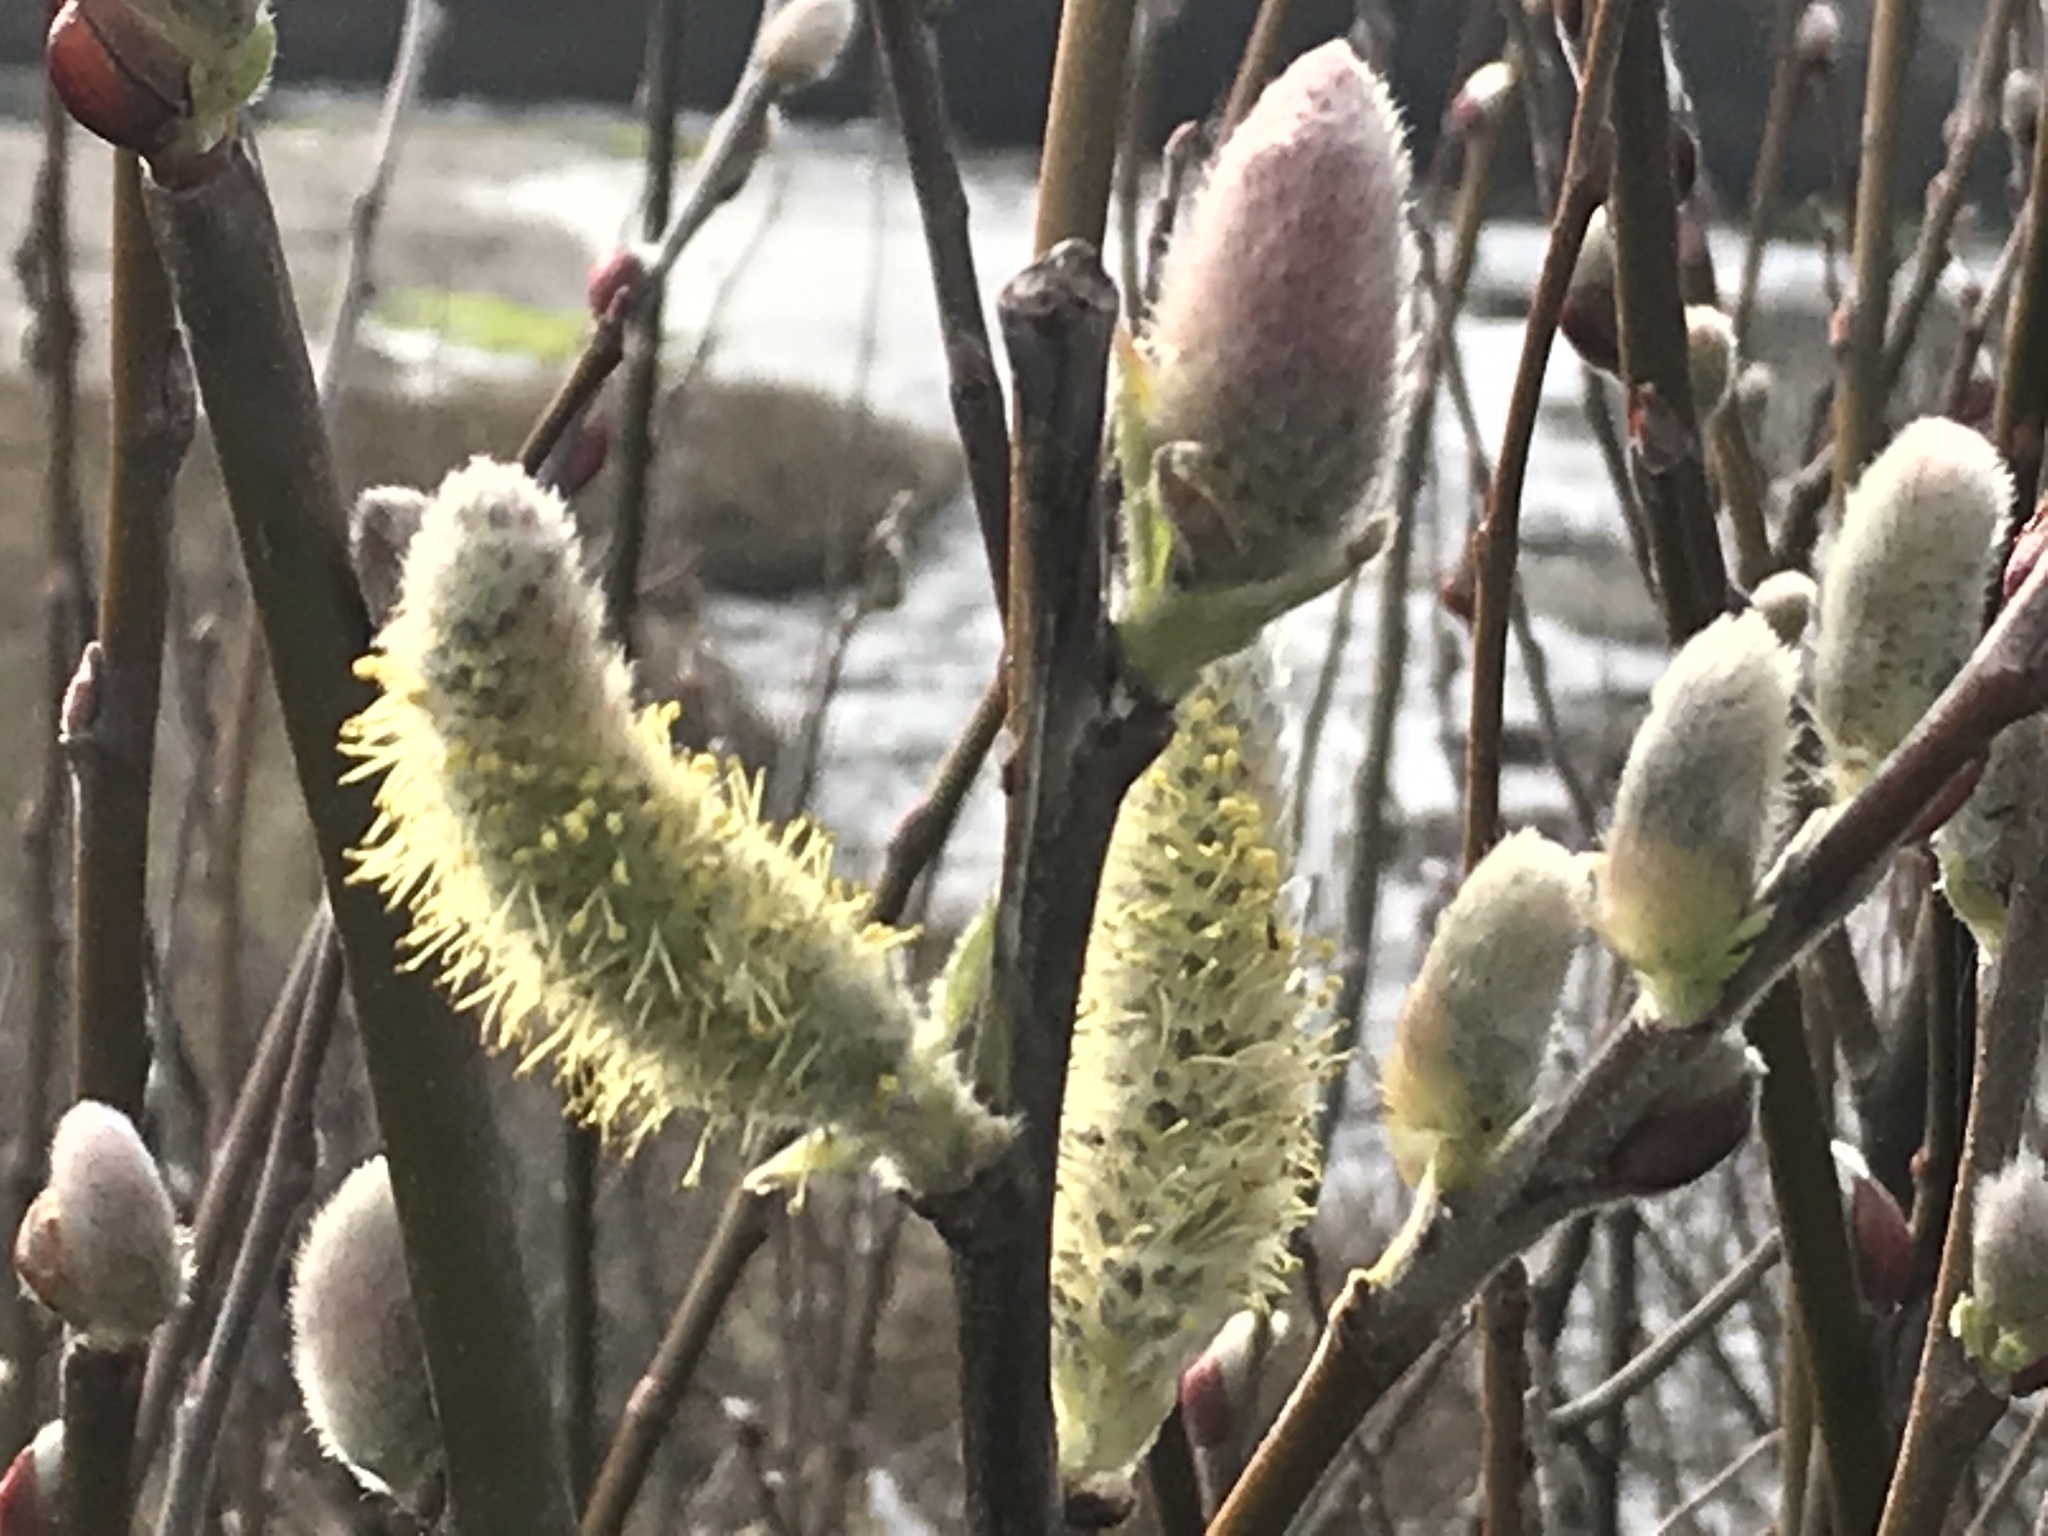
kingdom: Plantae
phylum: Tracheophyta
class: Magnoliopsida
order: Malpighiales
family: Salicaceae
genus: Salix
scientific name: Salix hookeriana
